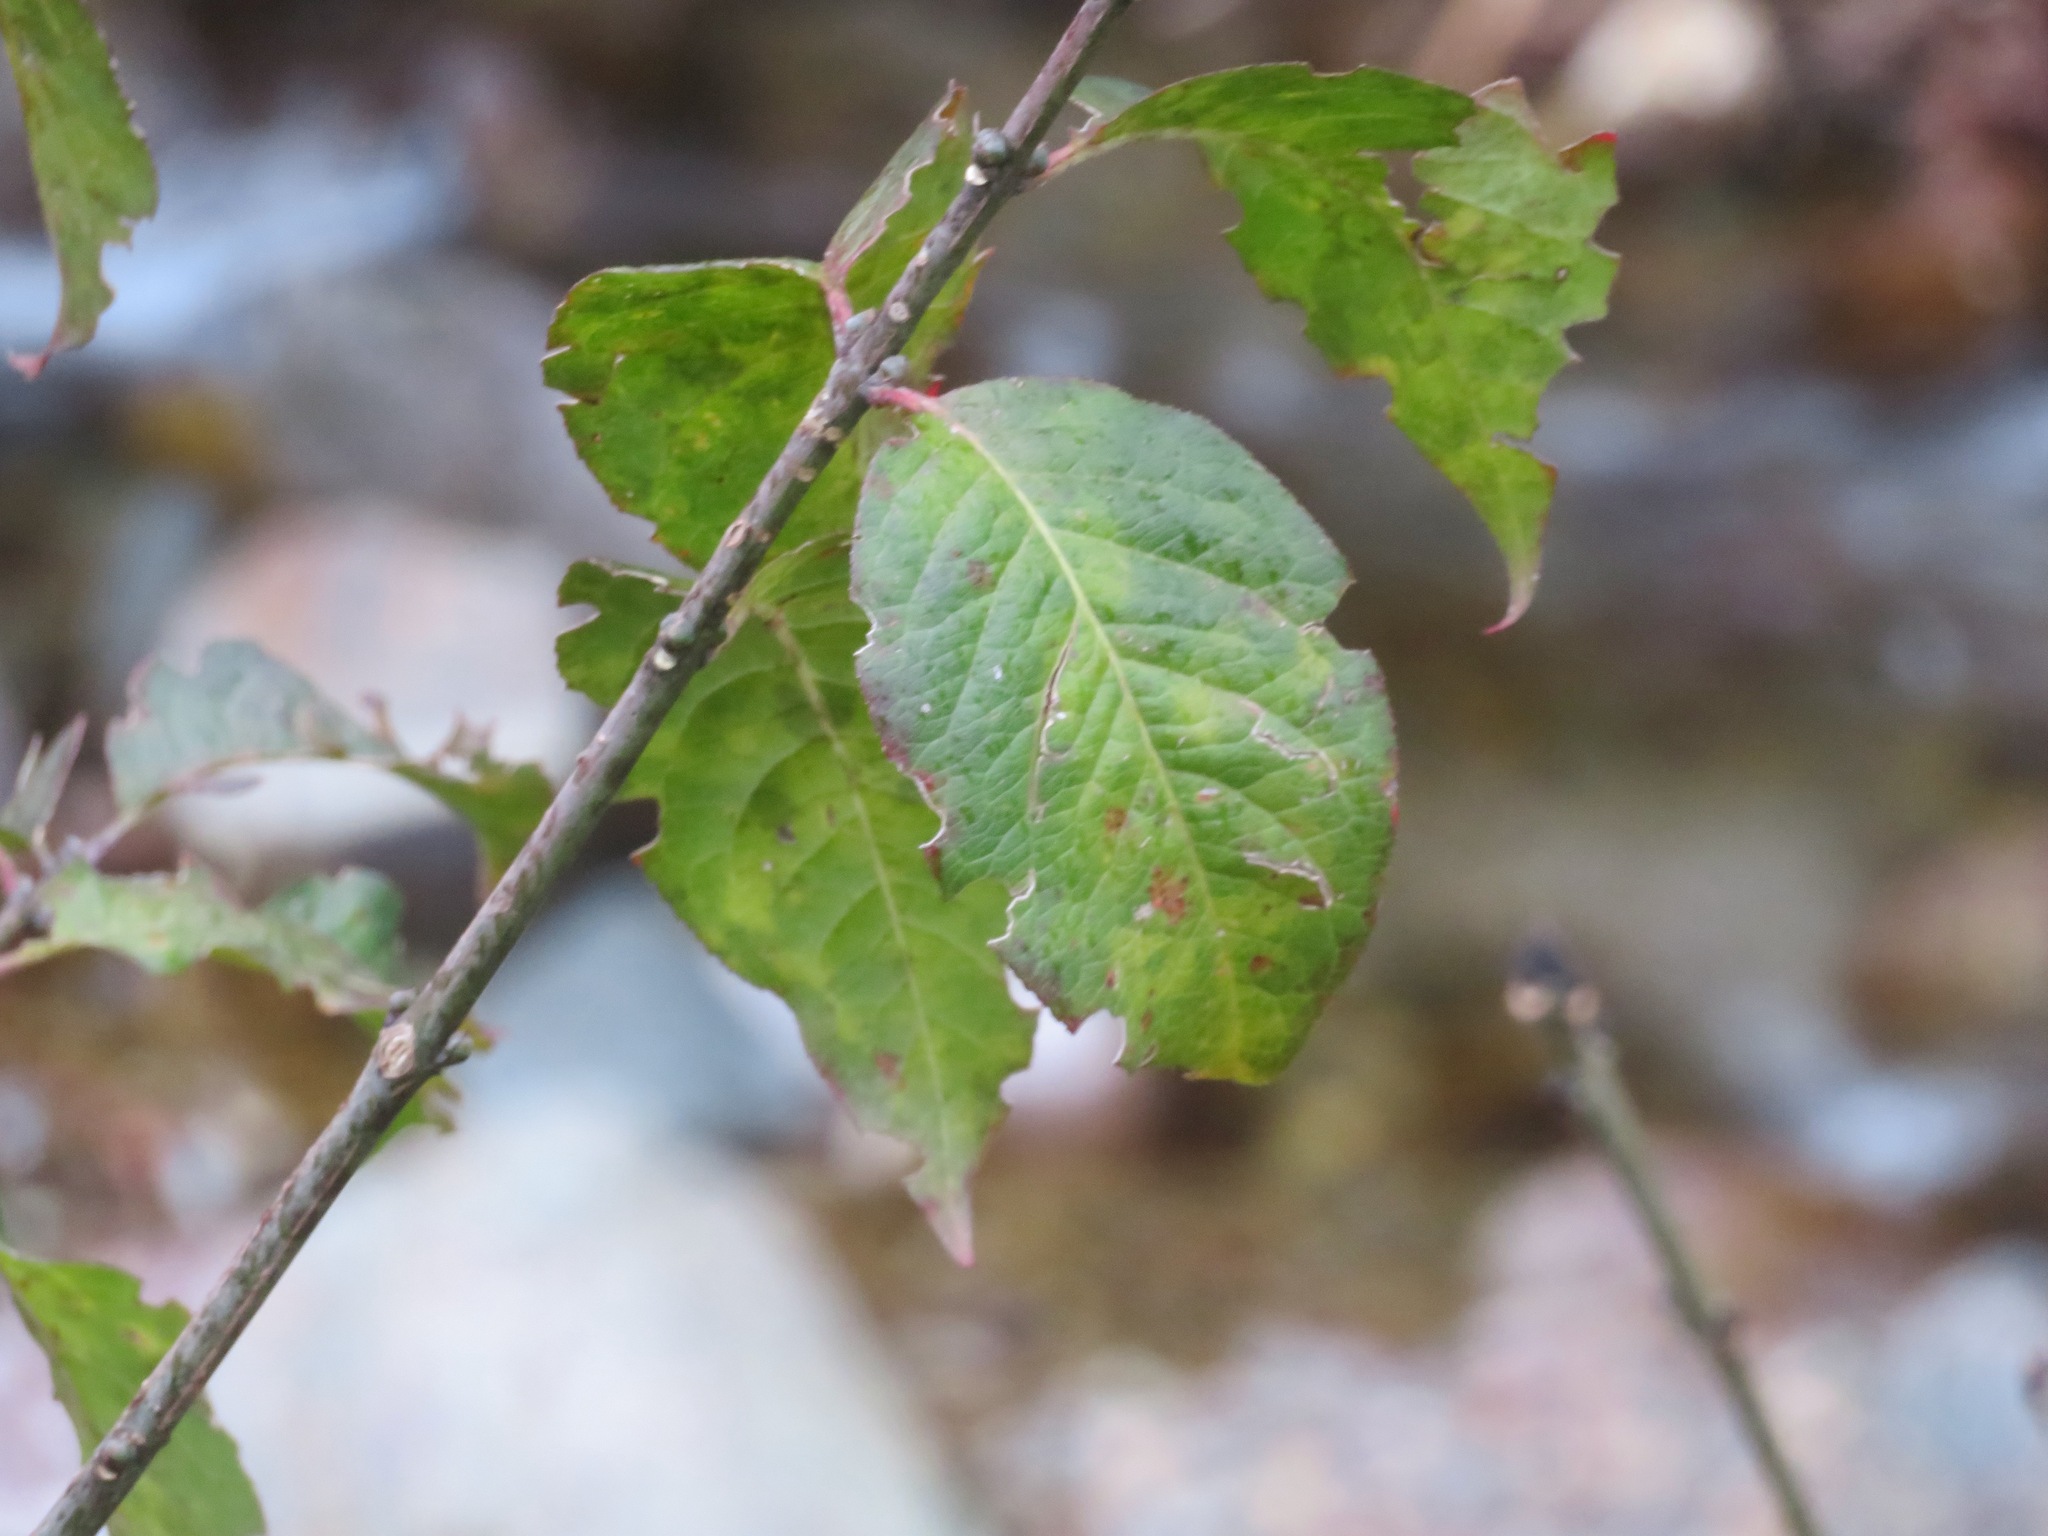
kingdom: Plantae
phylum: Tracheophyta
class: Magnoliopsida
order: Celastrales
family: Celastraceae
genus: Euonymus
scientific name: Euonymus europaeus
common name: Spindle
